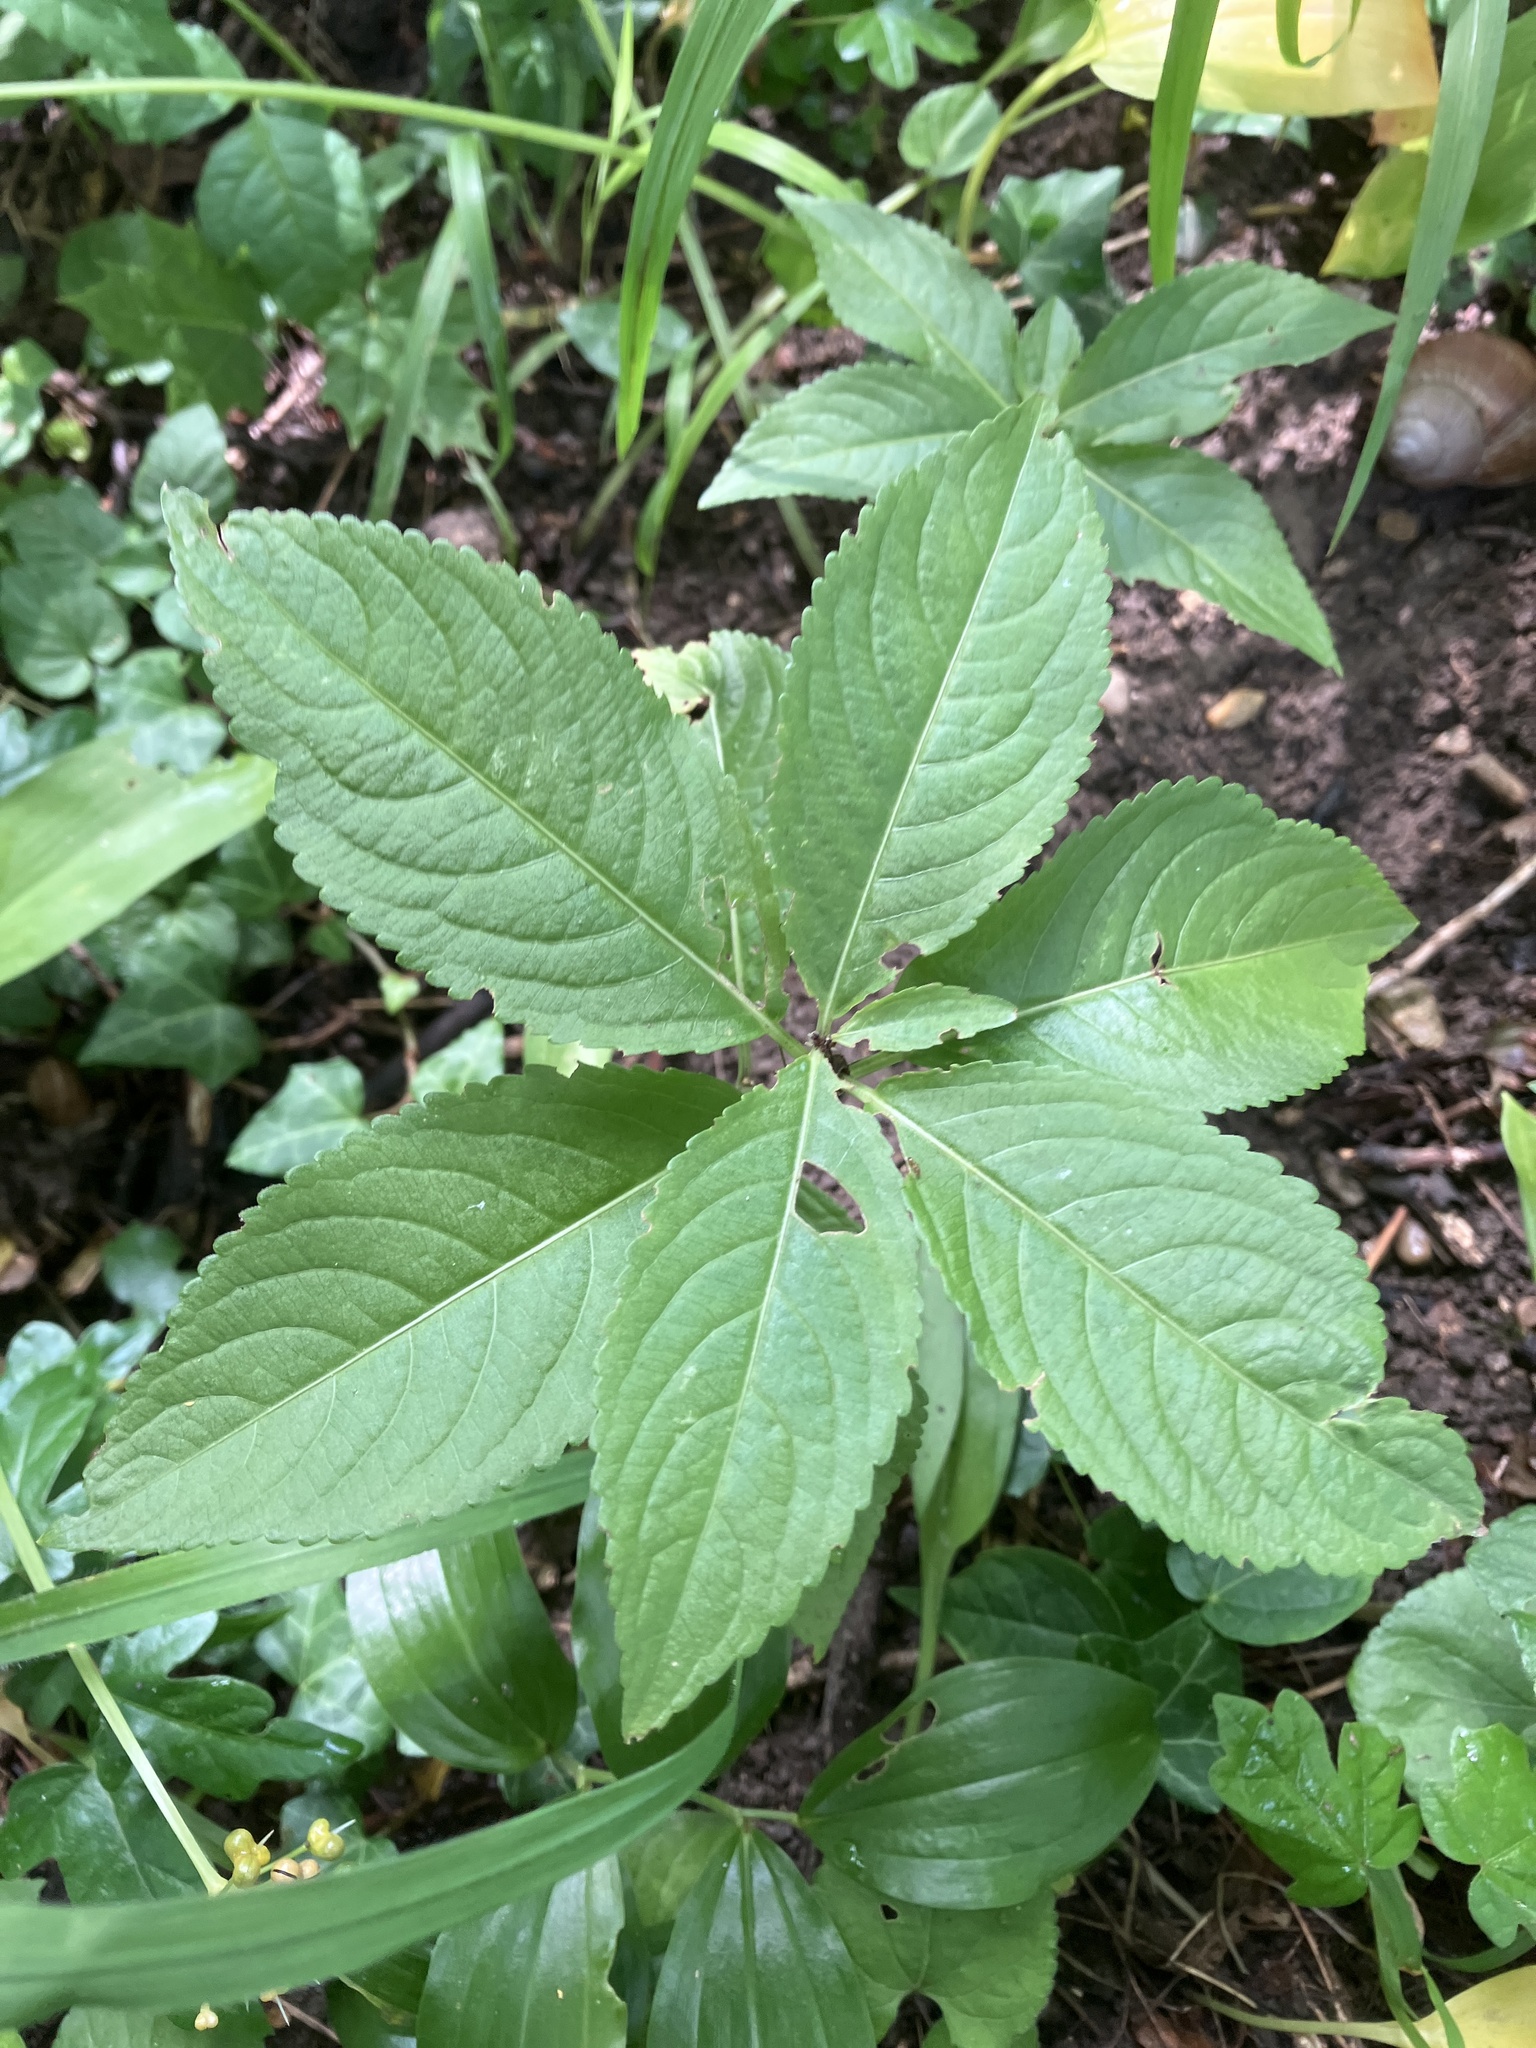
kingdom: Plantae
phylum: Tracheophyta
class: Magnoliopsida
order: Malpighiales
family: Euphorbiaceae
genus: Mercurialis
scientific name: Mercurialis perennis
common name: Dog mercury
